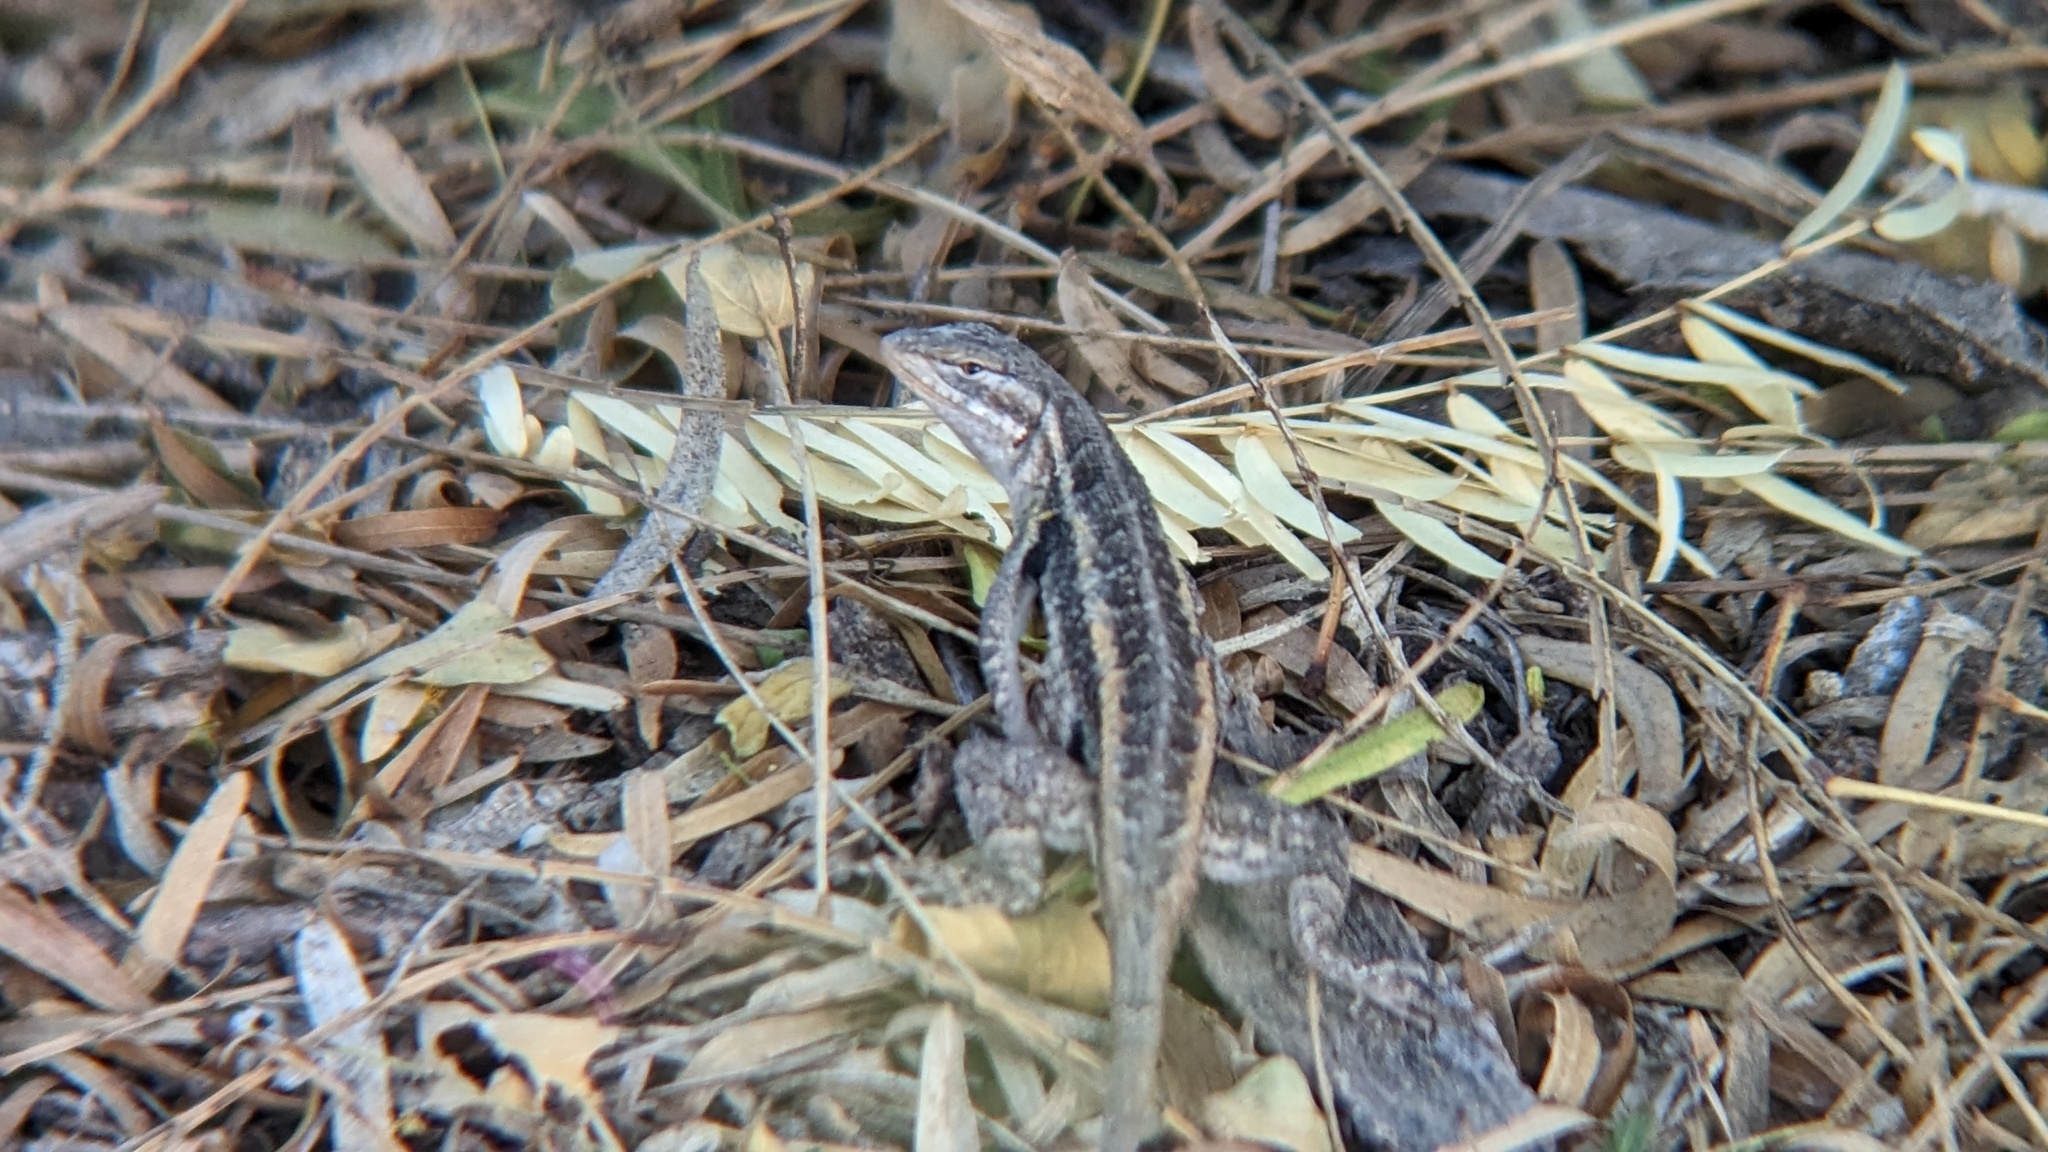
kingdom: Animalia
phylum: Chordata
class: Squamata
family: Phrynosomatidae
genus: Sceloporus
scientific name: Sceloporus variabilis
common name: Rosebelly lizard
